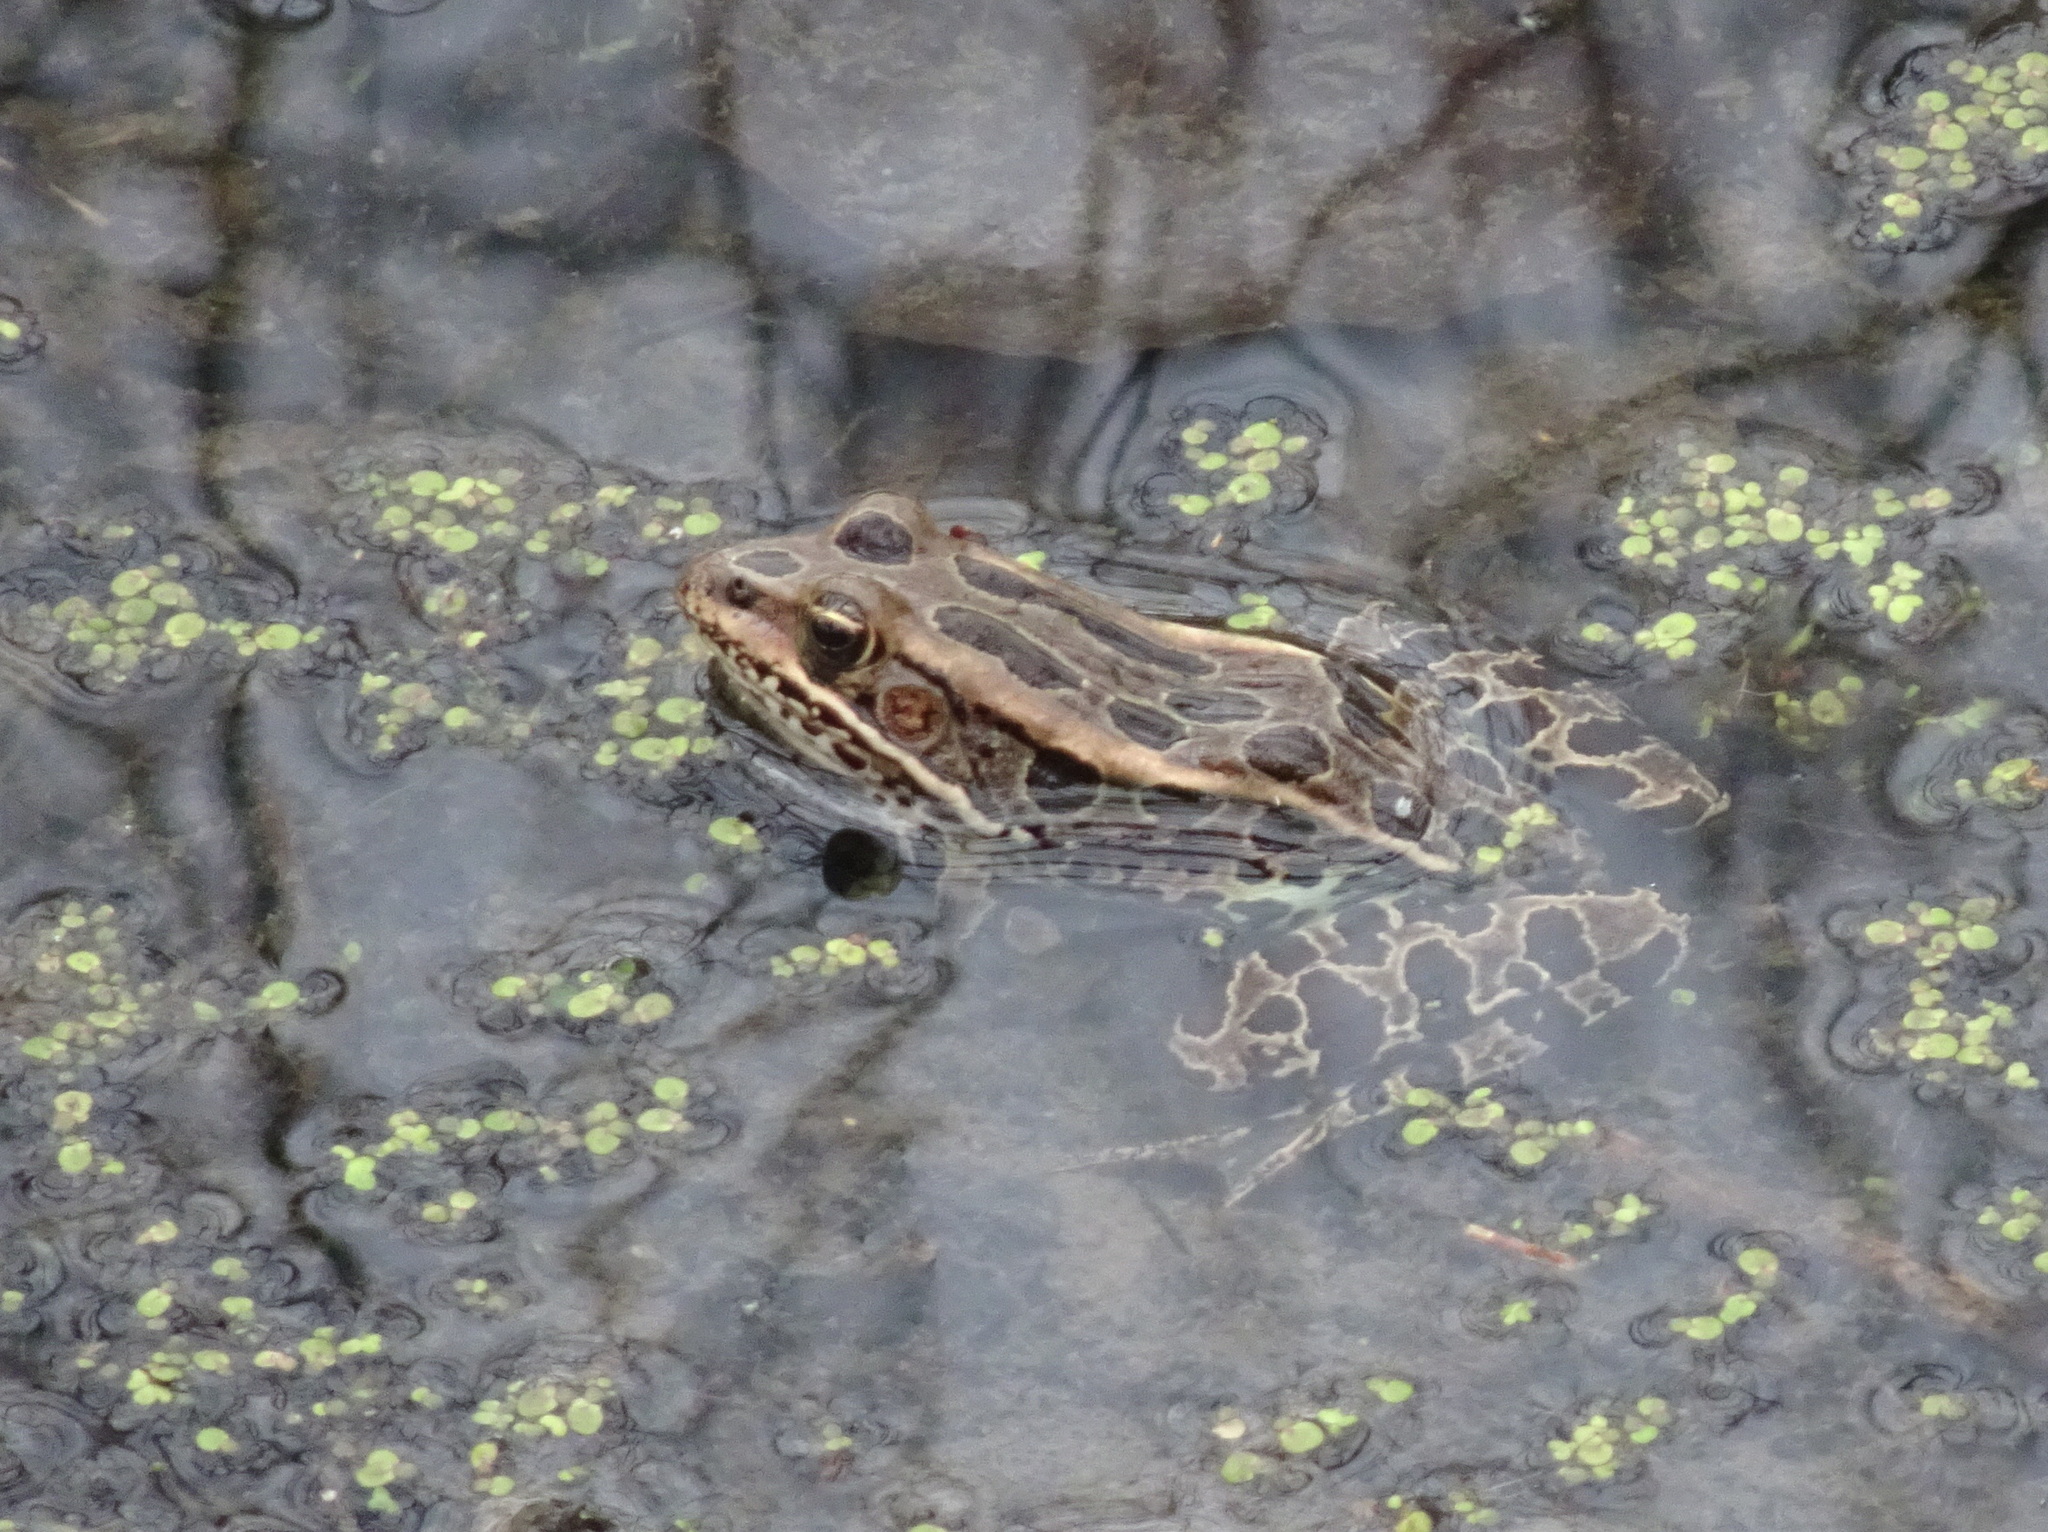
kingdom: Animalia
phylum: Chordata
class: Amphibia
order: Anura
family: Ranidae
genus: Lithobates
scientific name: Lithobates pipiens
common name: Northern leopard frog
